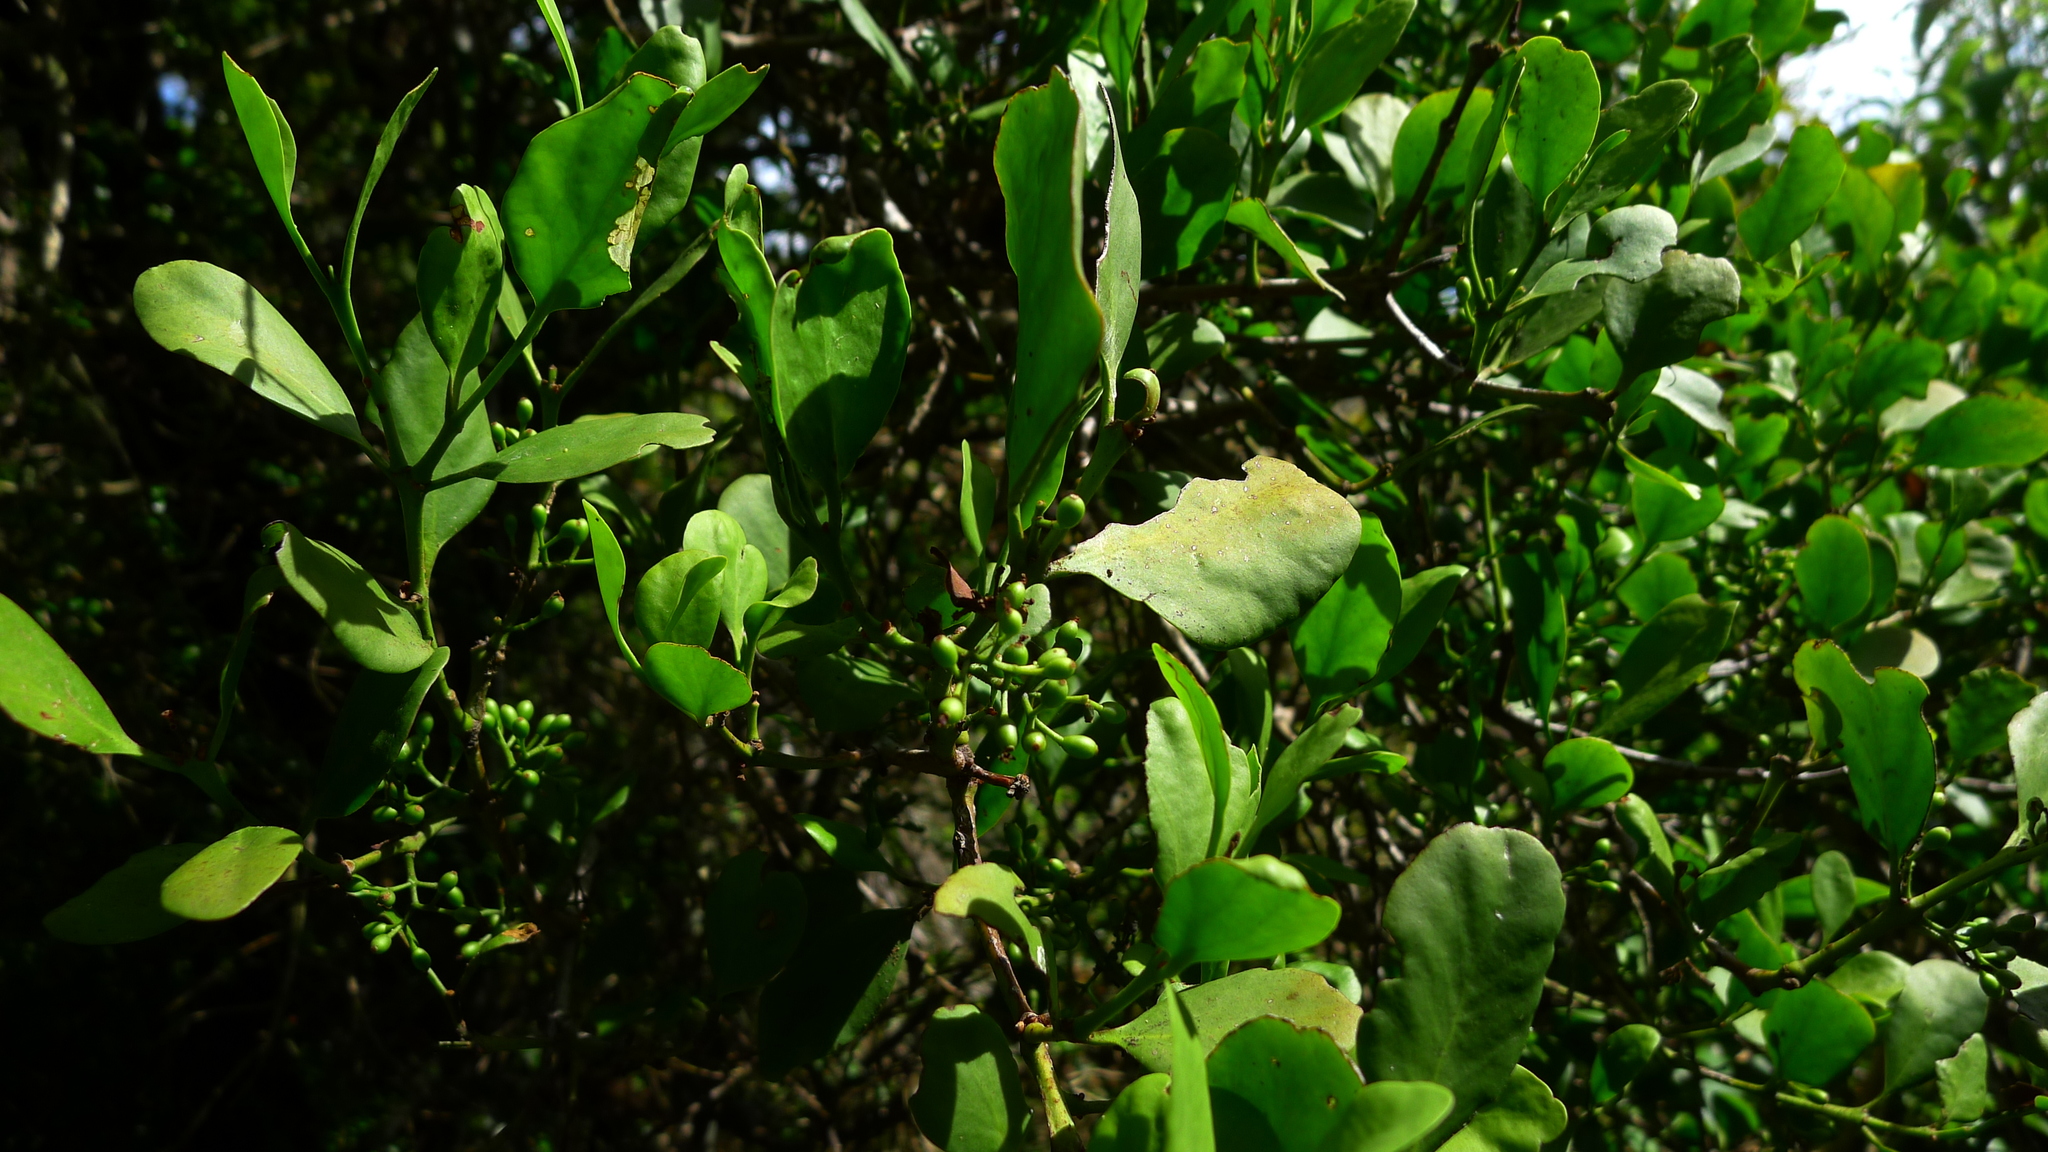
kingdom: Plantae
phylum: Tracheophyta
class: Magnoliopsida
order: Santalales
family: Loranthaceae
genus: Ileostylus
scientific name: Ileostylus micranthus
